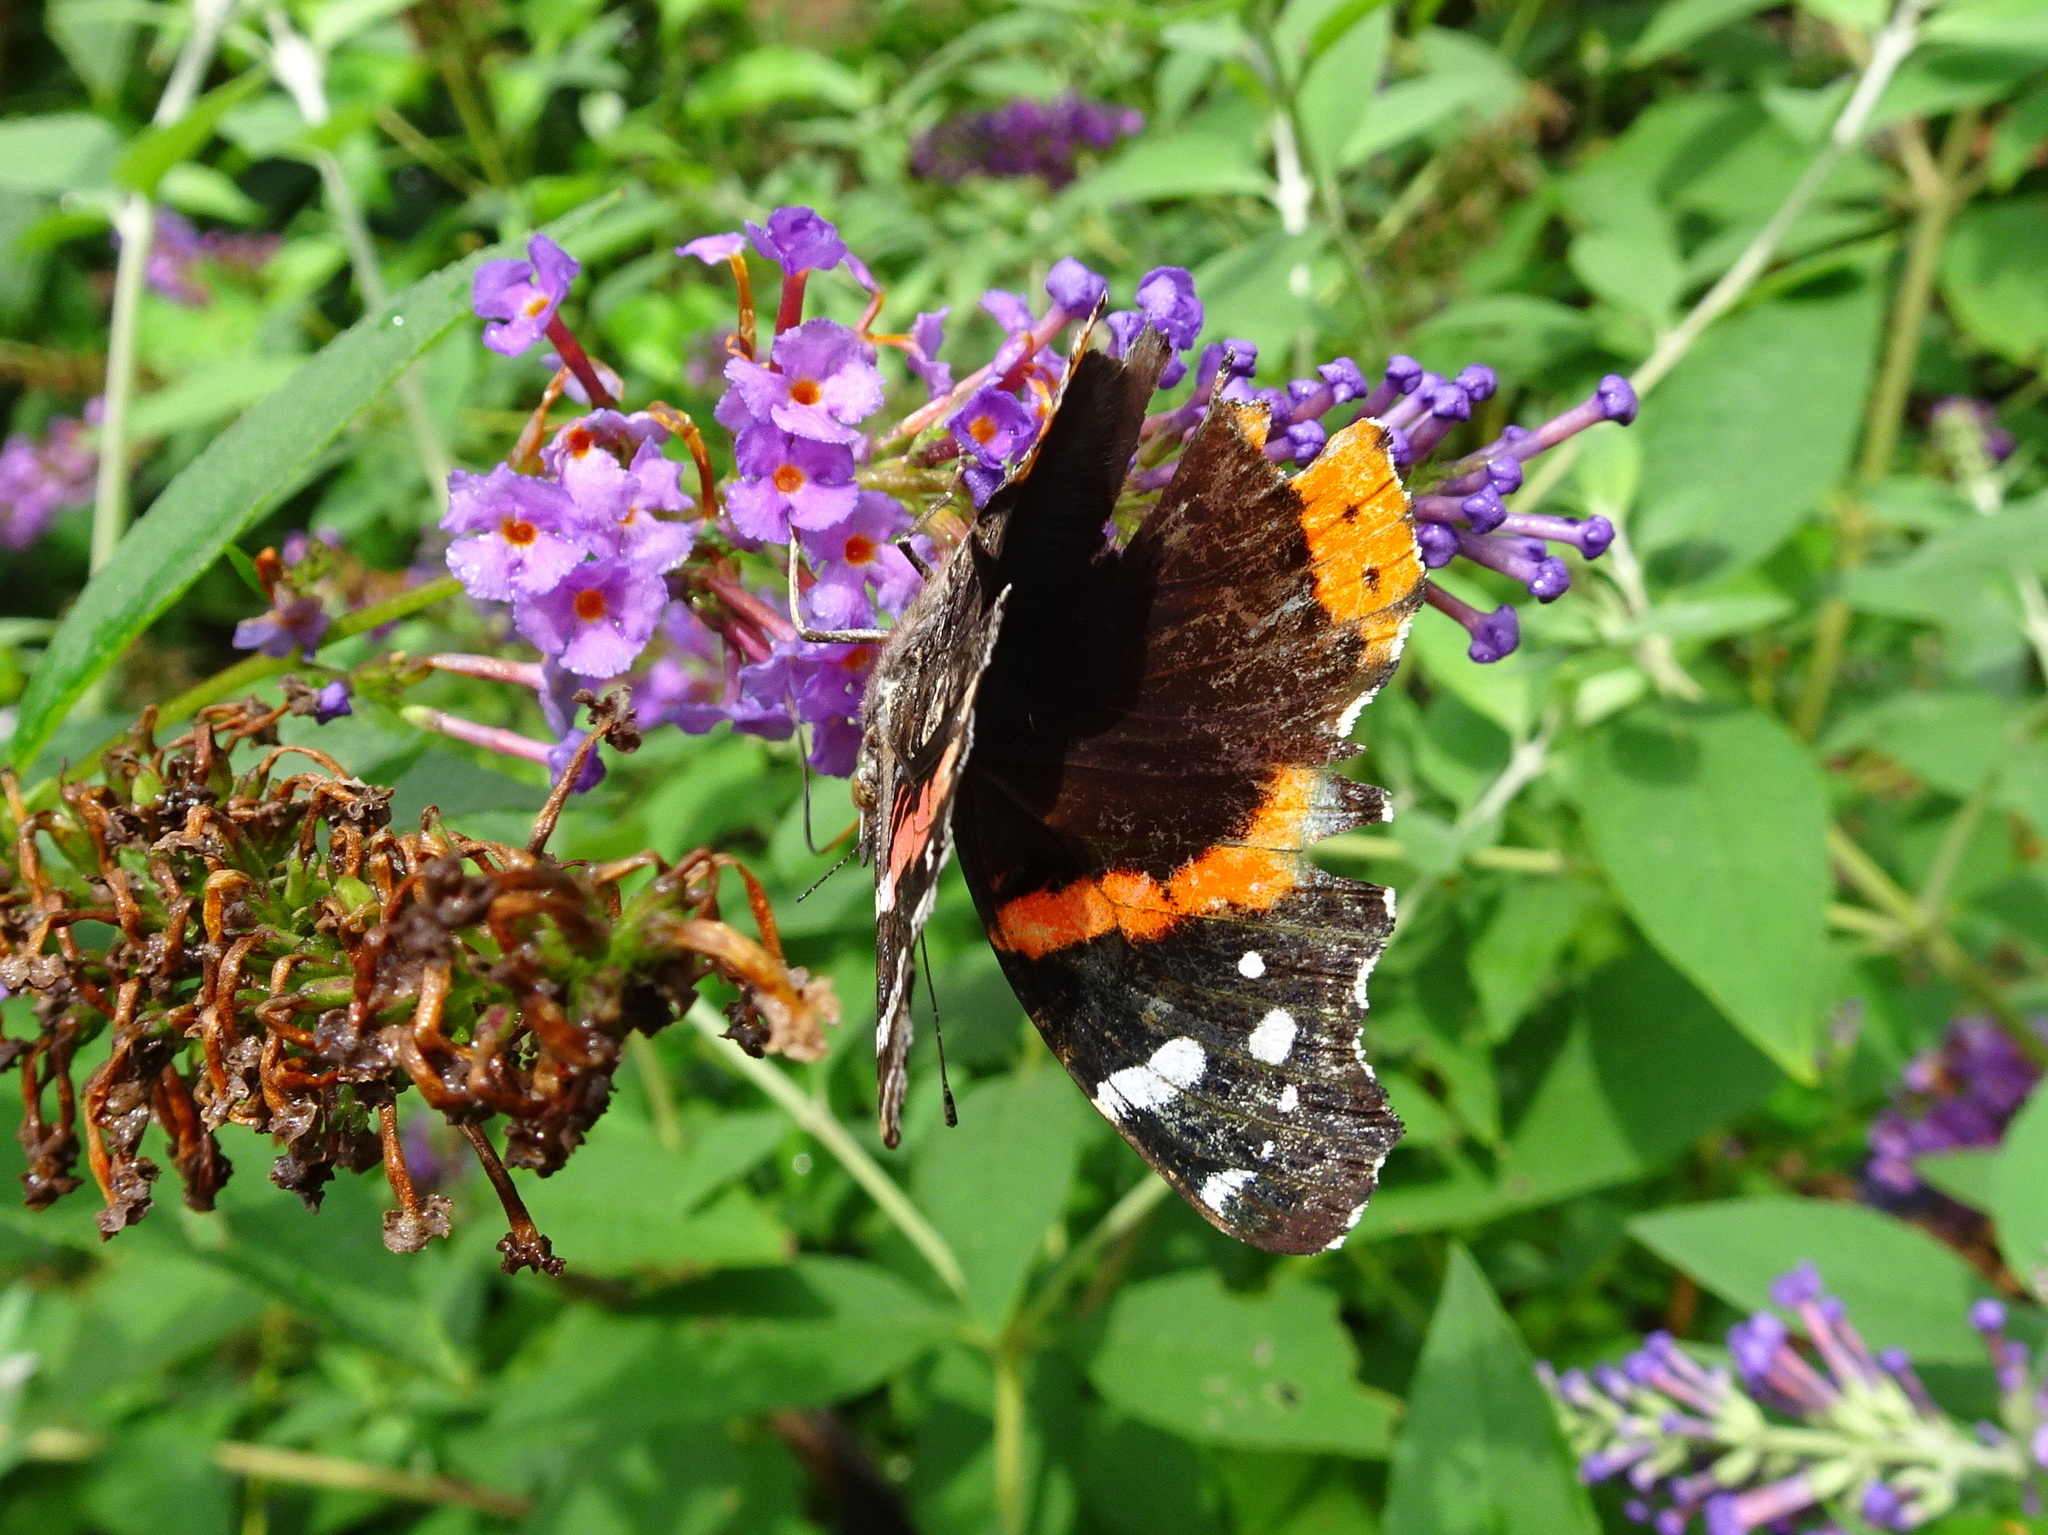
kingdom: Animalia
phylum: Arthropoda
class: Insecta
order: Lepidoptera
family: Nymphalidae
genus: Vanessa
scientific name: Vanessa atalanta
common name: Red admiral
